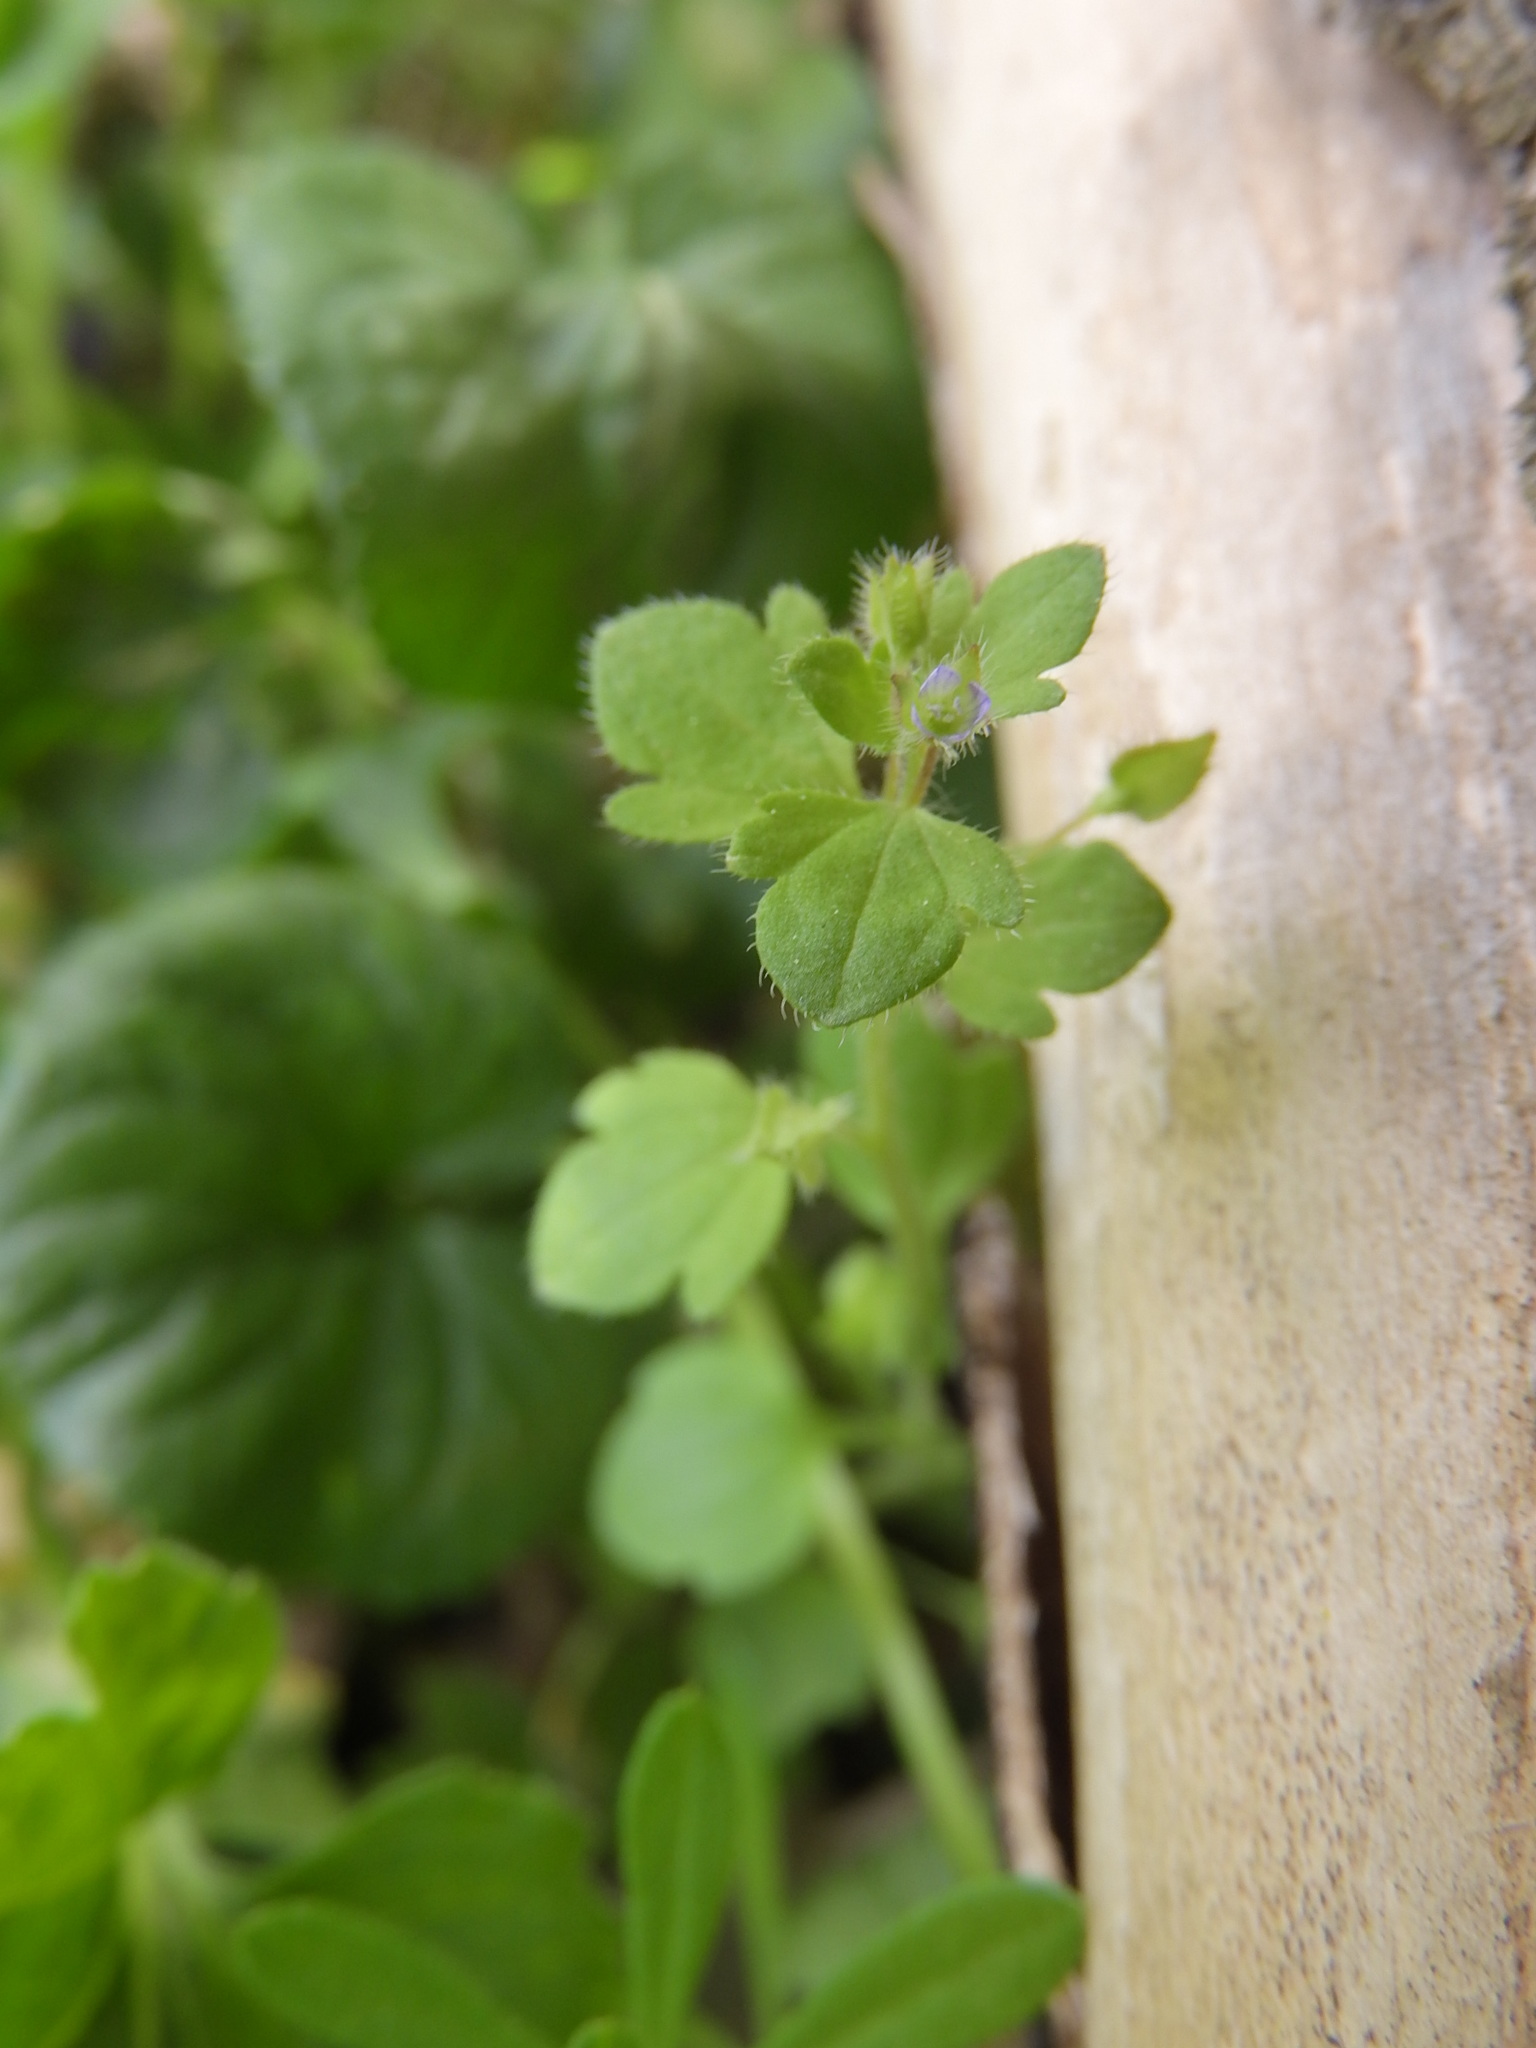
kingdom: Plantae
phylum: Tracheophyta
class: Magnoliopsida
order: Lamiales
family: Plantaginaceae
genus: Veronica
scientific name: Veronica sublobata
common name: False ivy-leaved speedwell
